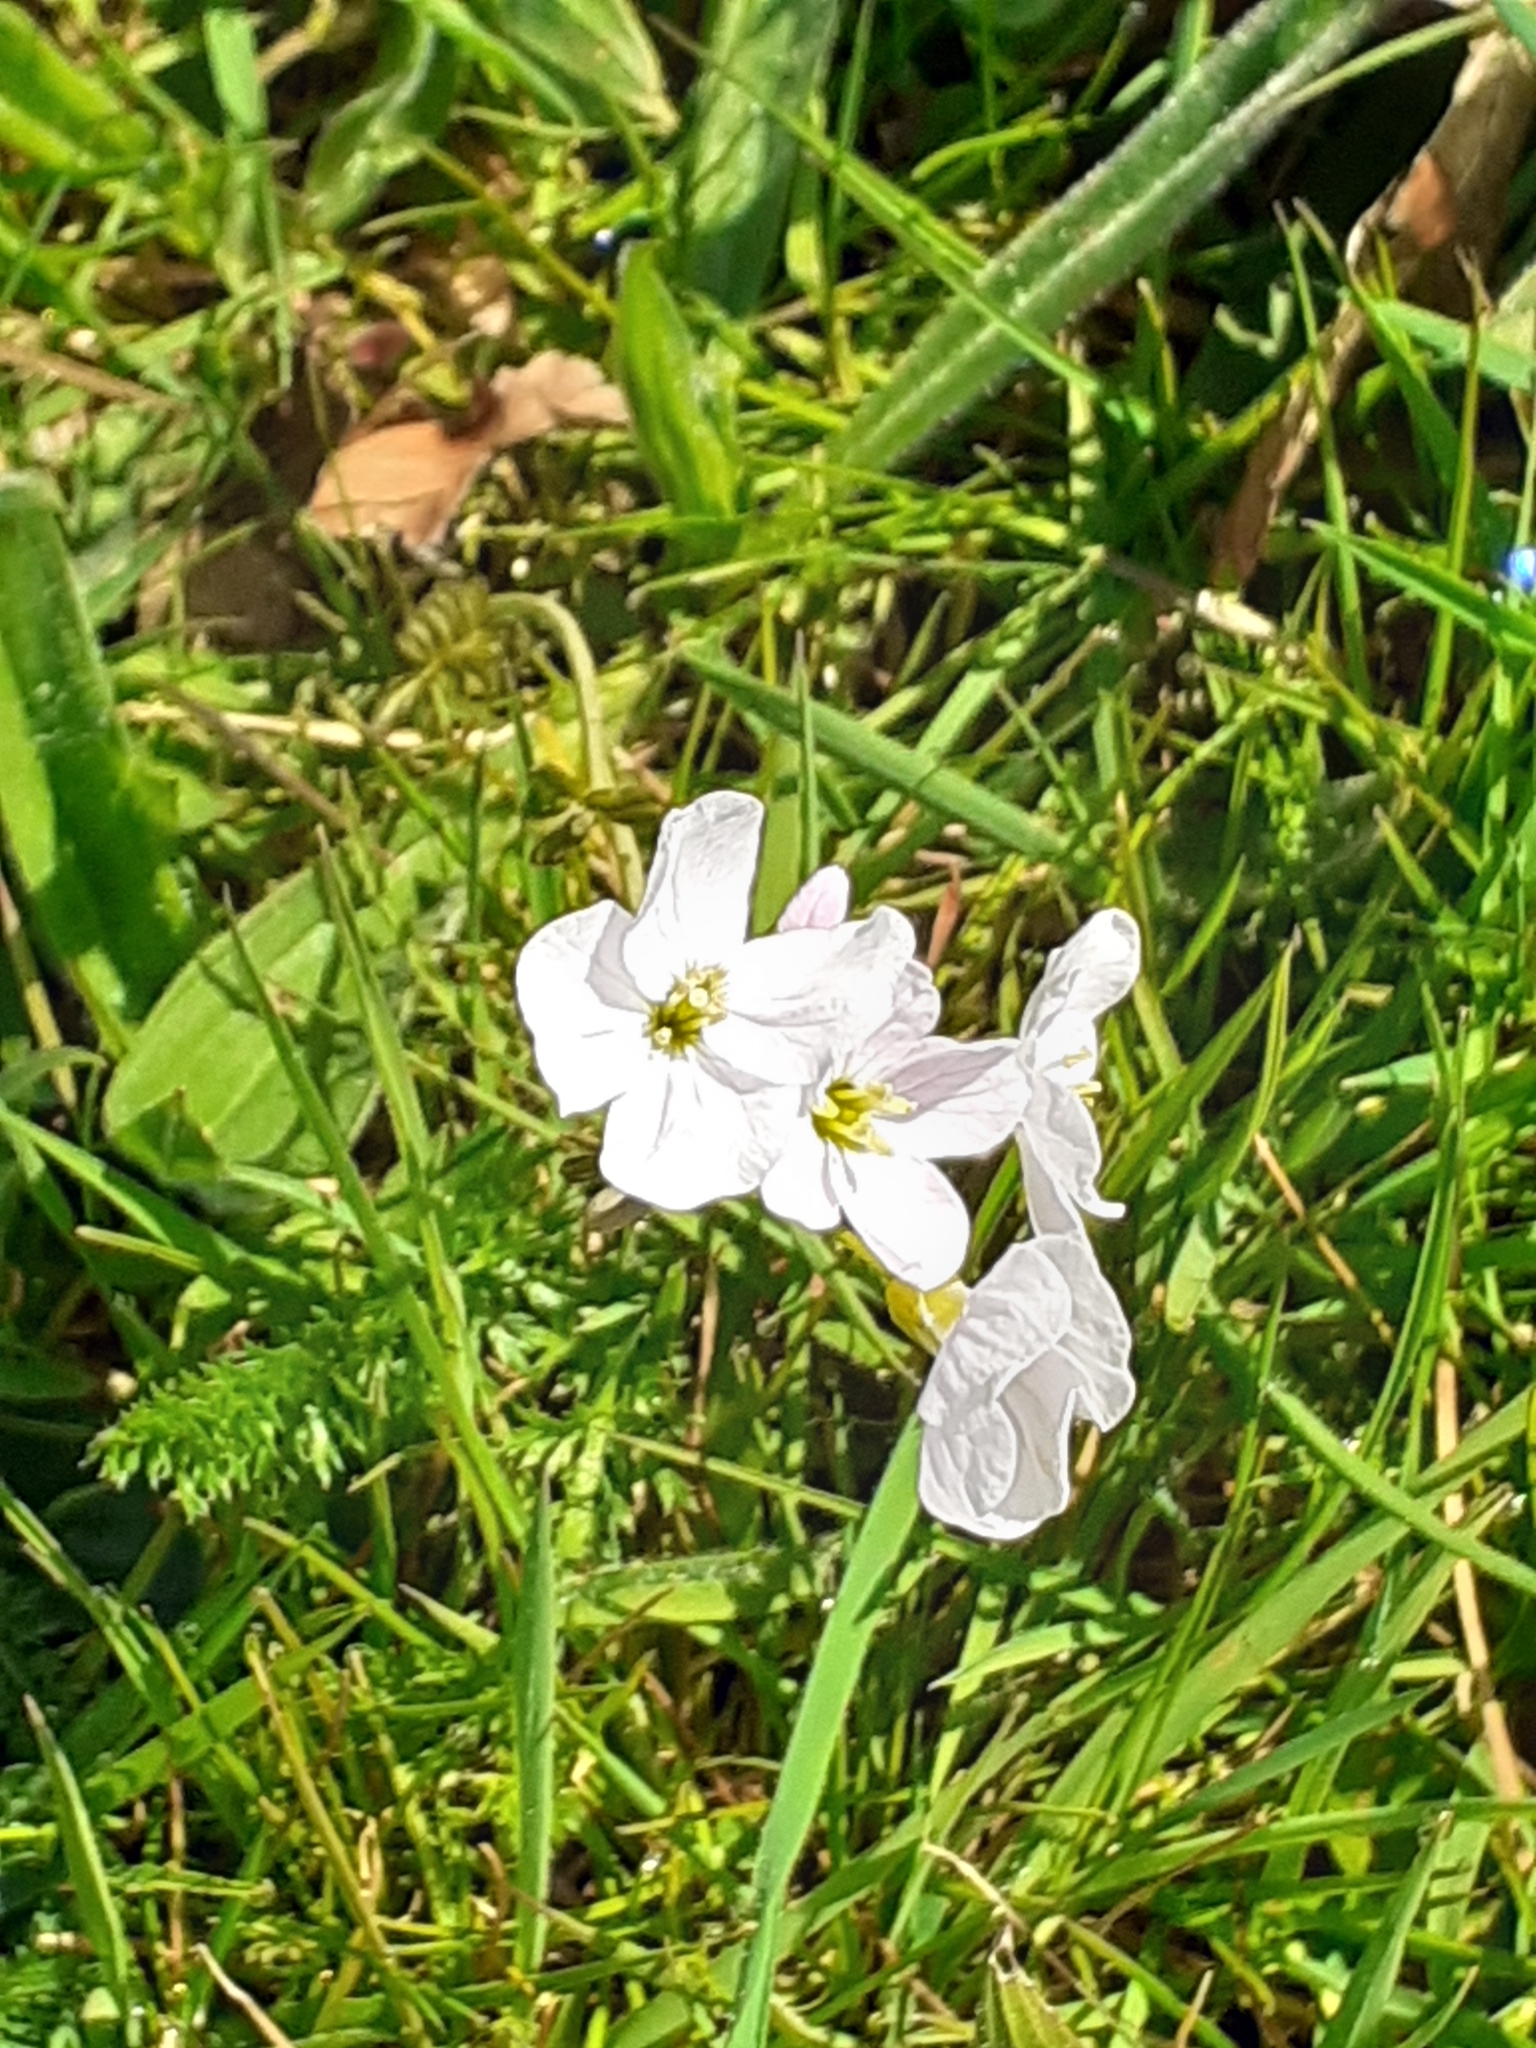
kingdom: Plantae
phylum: Tracheophyta
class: Magnoliopsida
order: Brassicales
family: Brassicaceae
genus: Cardamine
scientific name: Cardamine pratensis
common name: Cuckoo flower
